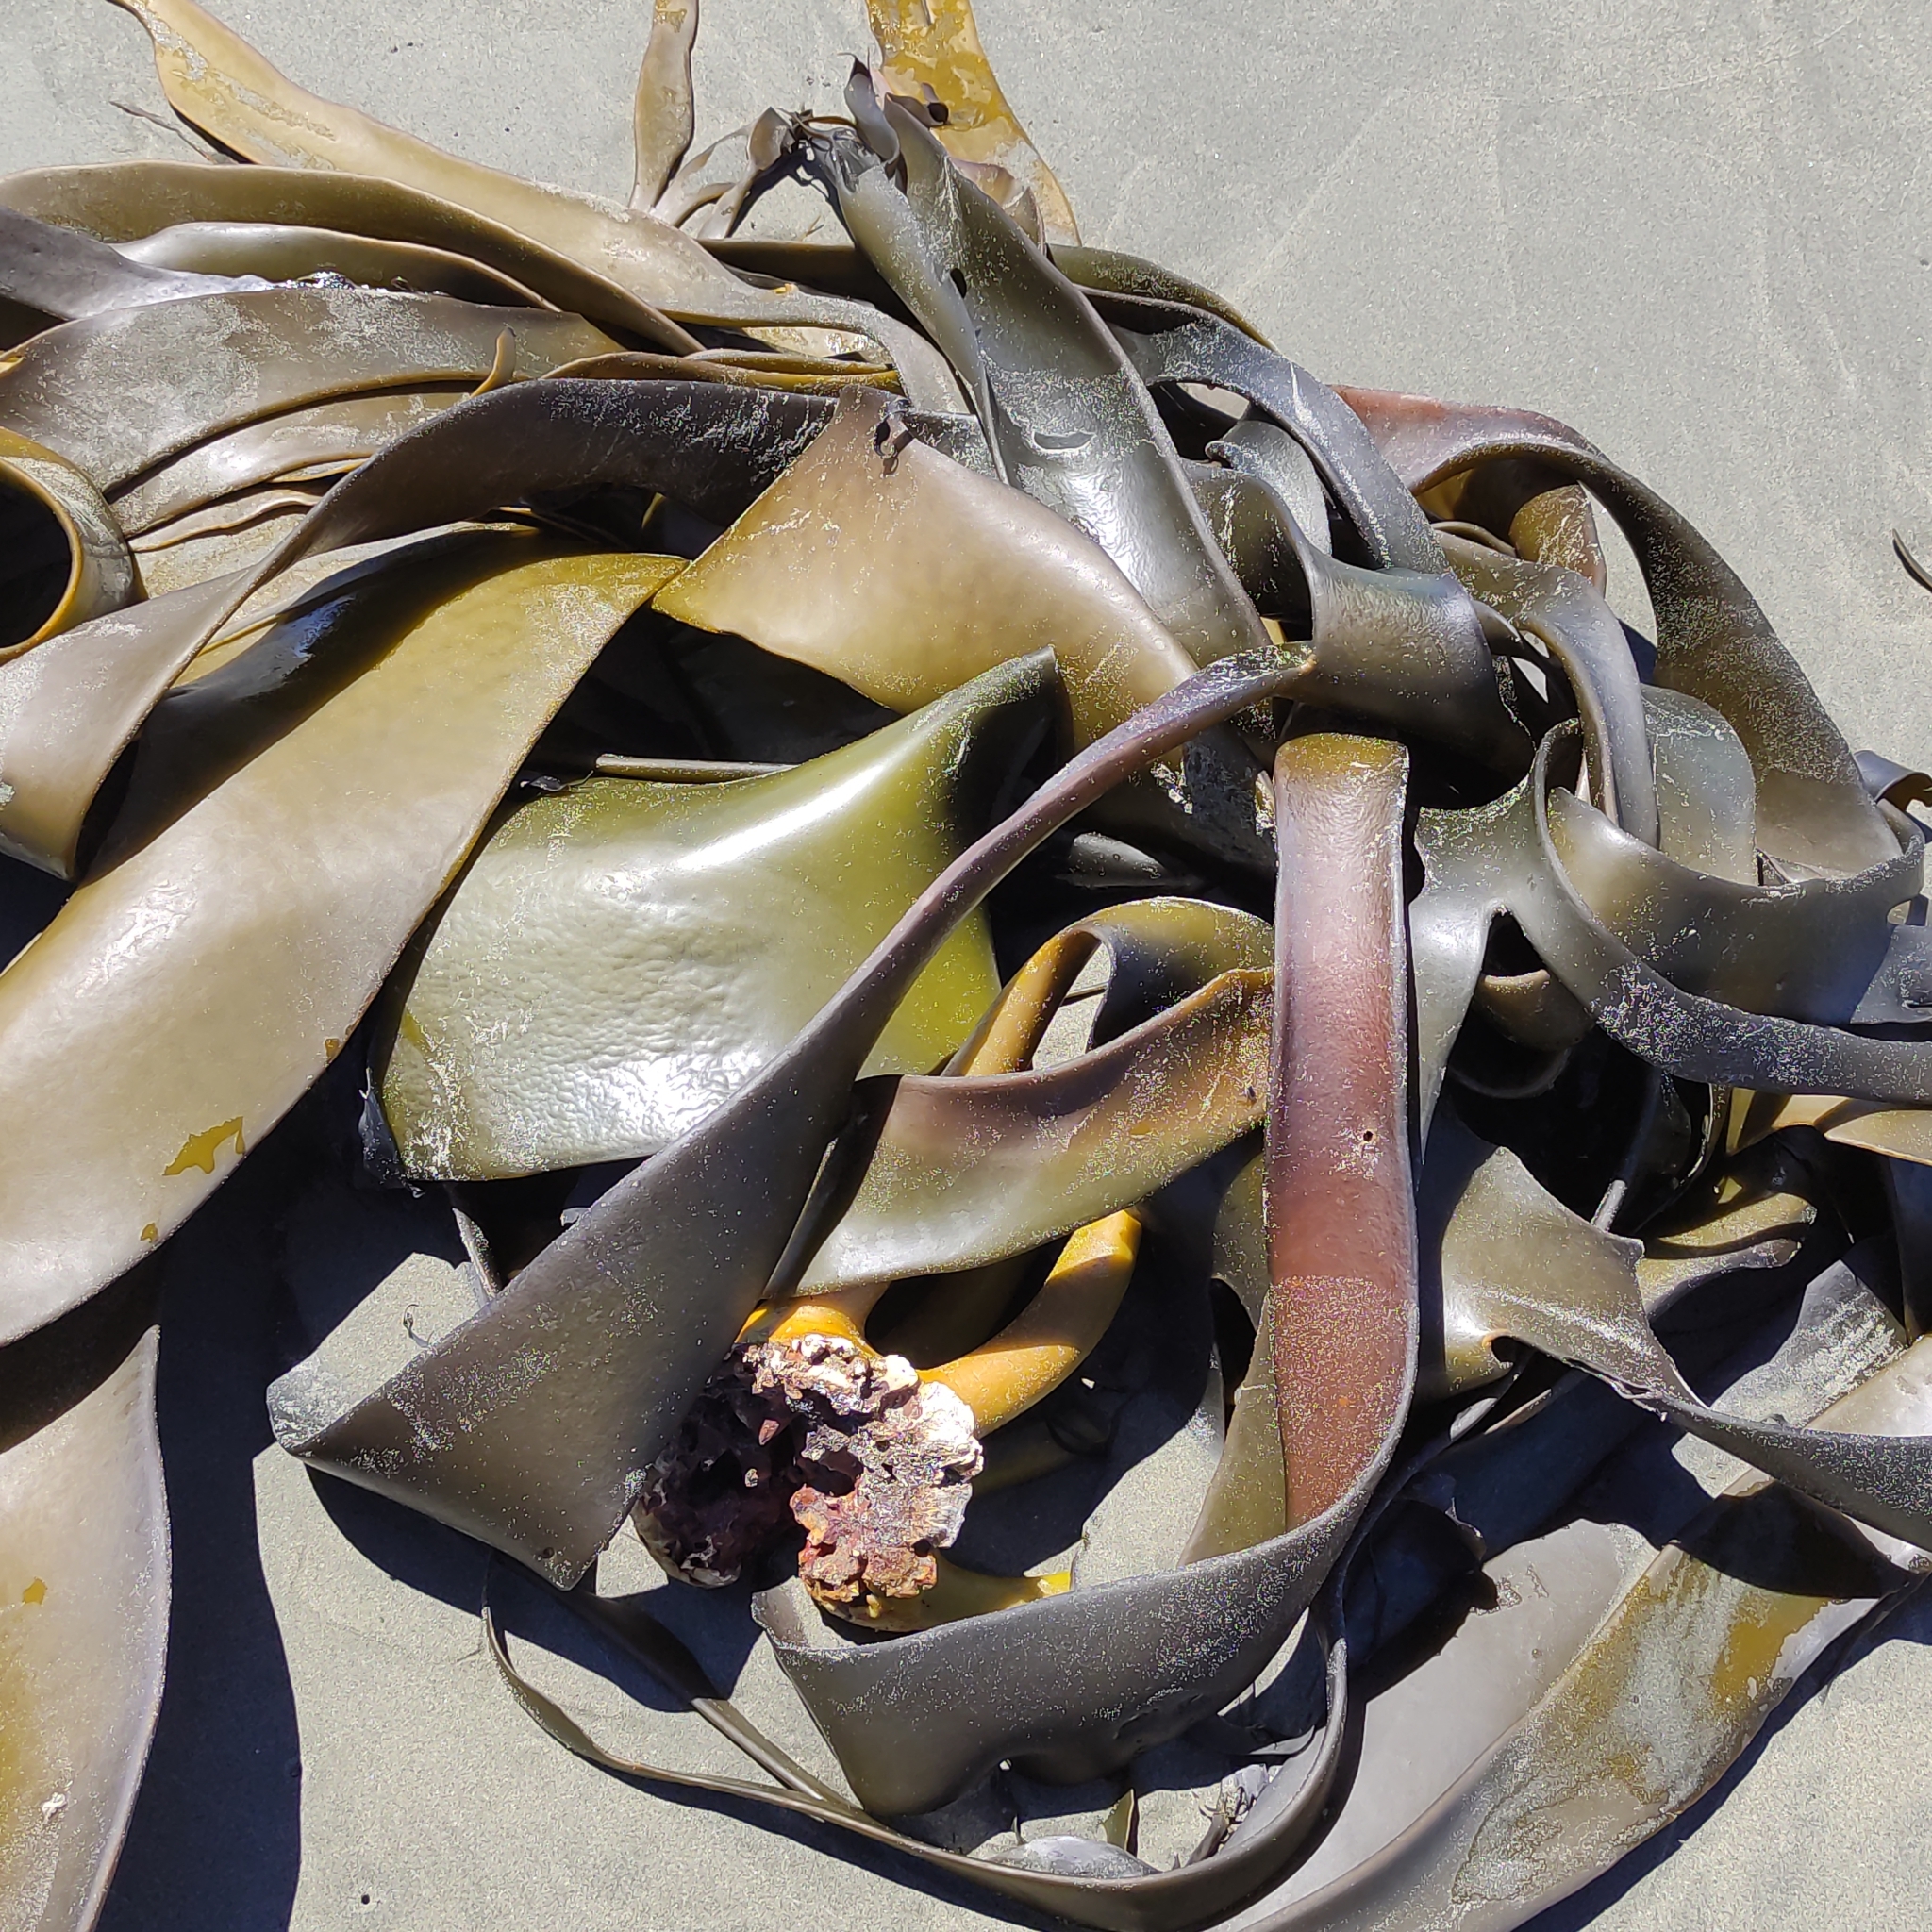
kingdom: Chromista
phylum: Ochrophyta
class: Phaeophyceae
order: Fucales
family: Durvillaeaceae
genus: Durvillaea
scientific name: Durvillaea antarctica
